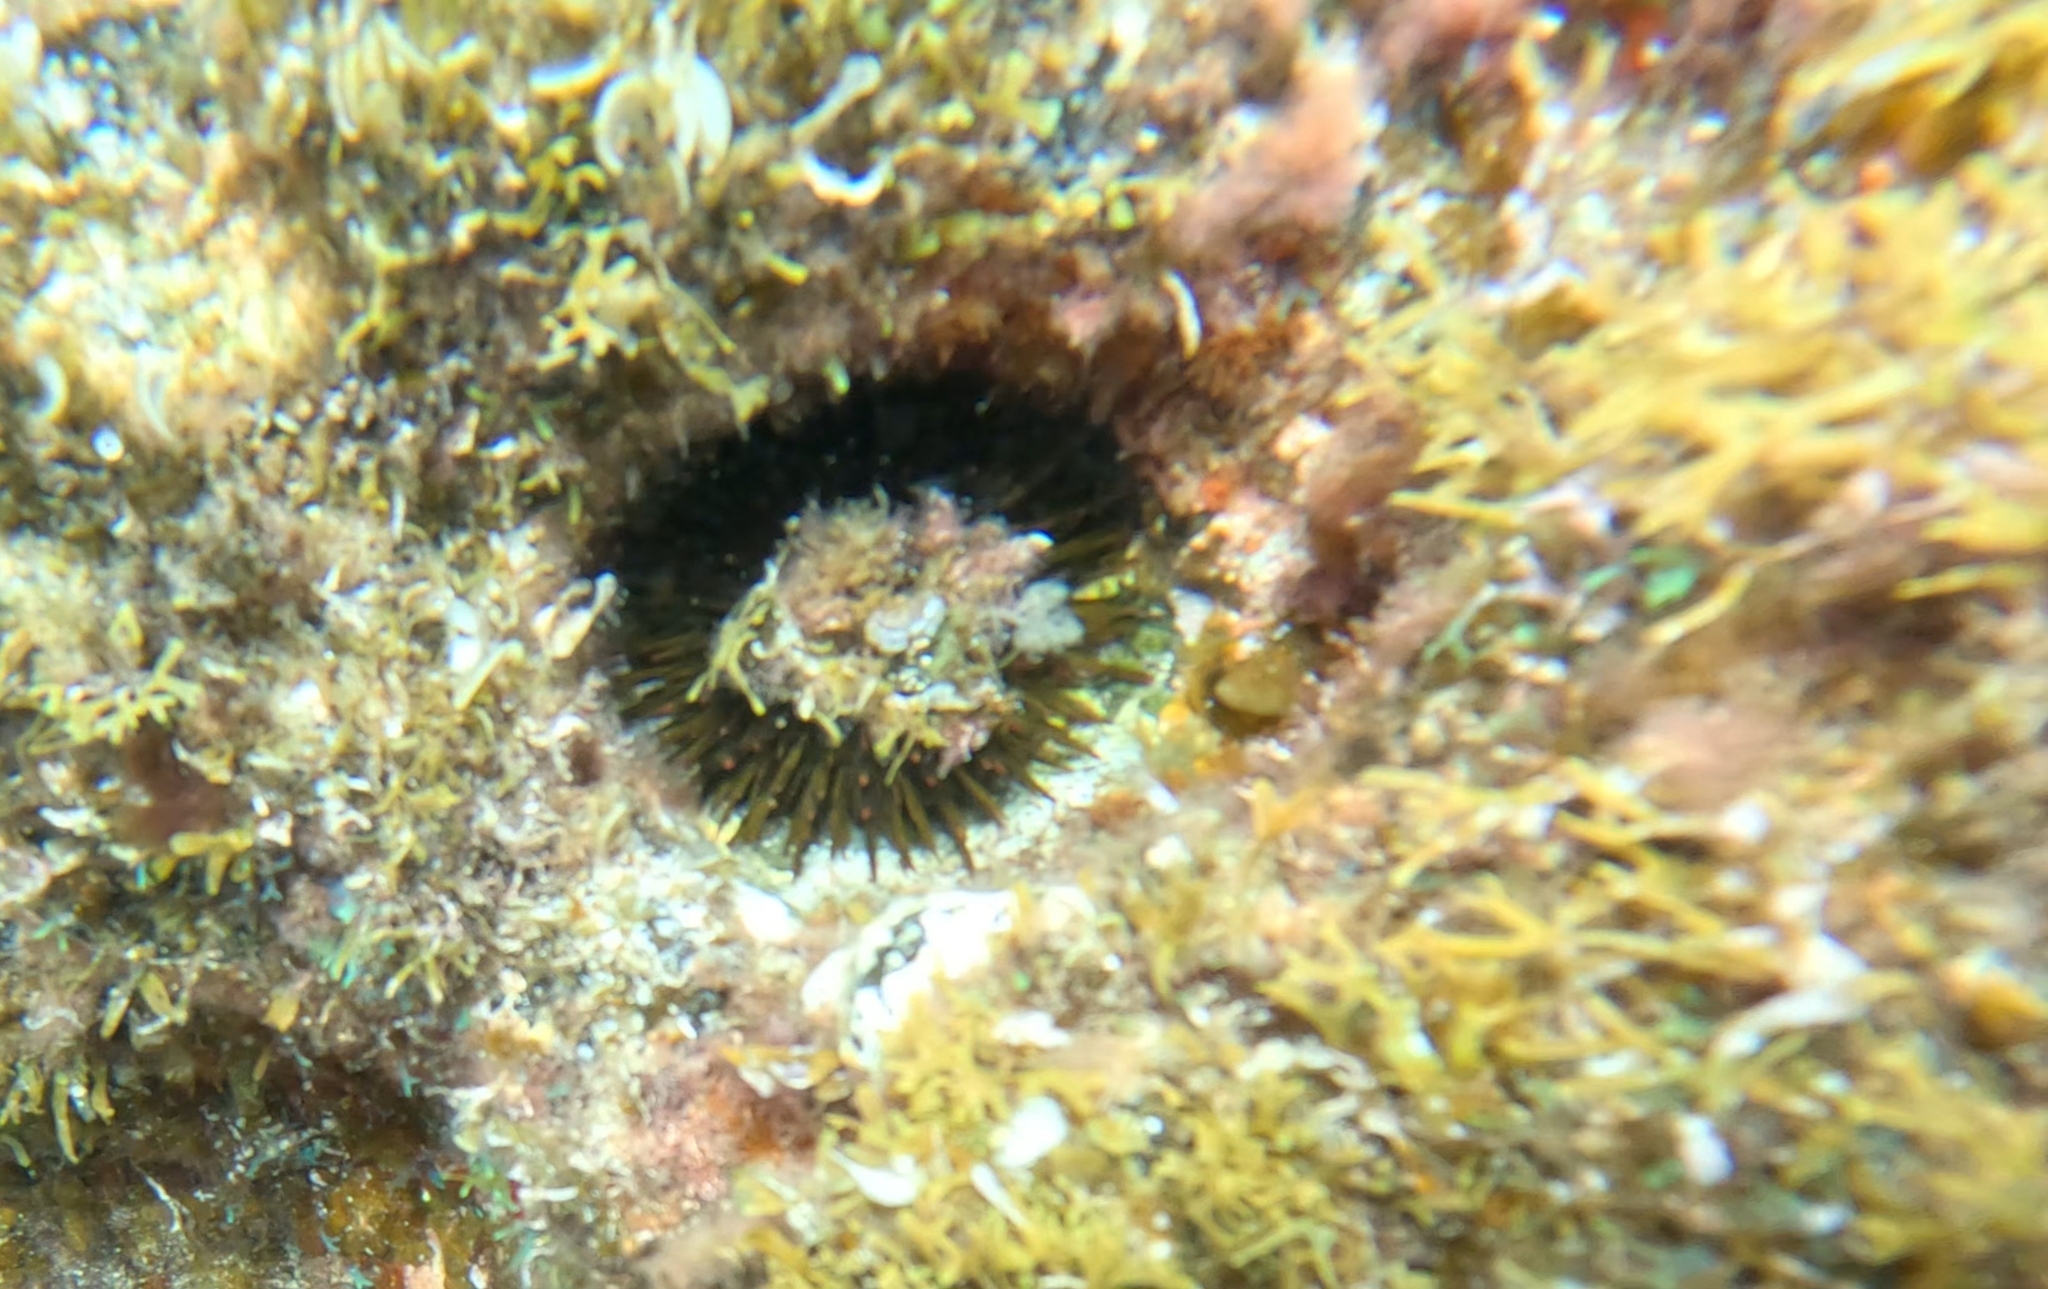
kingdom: Animalia
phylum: Echinodermata
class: Echinoidea
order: Camarodonta
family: Parechinidae
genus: Paracentrotus
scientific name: Paracentrotus lividus
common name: Purple sea urchin
